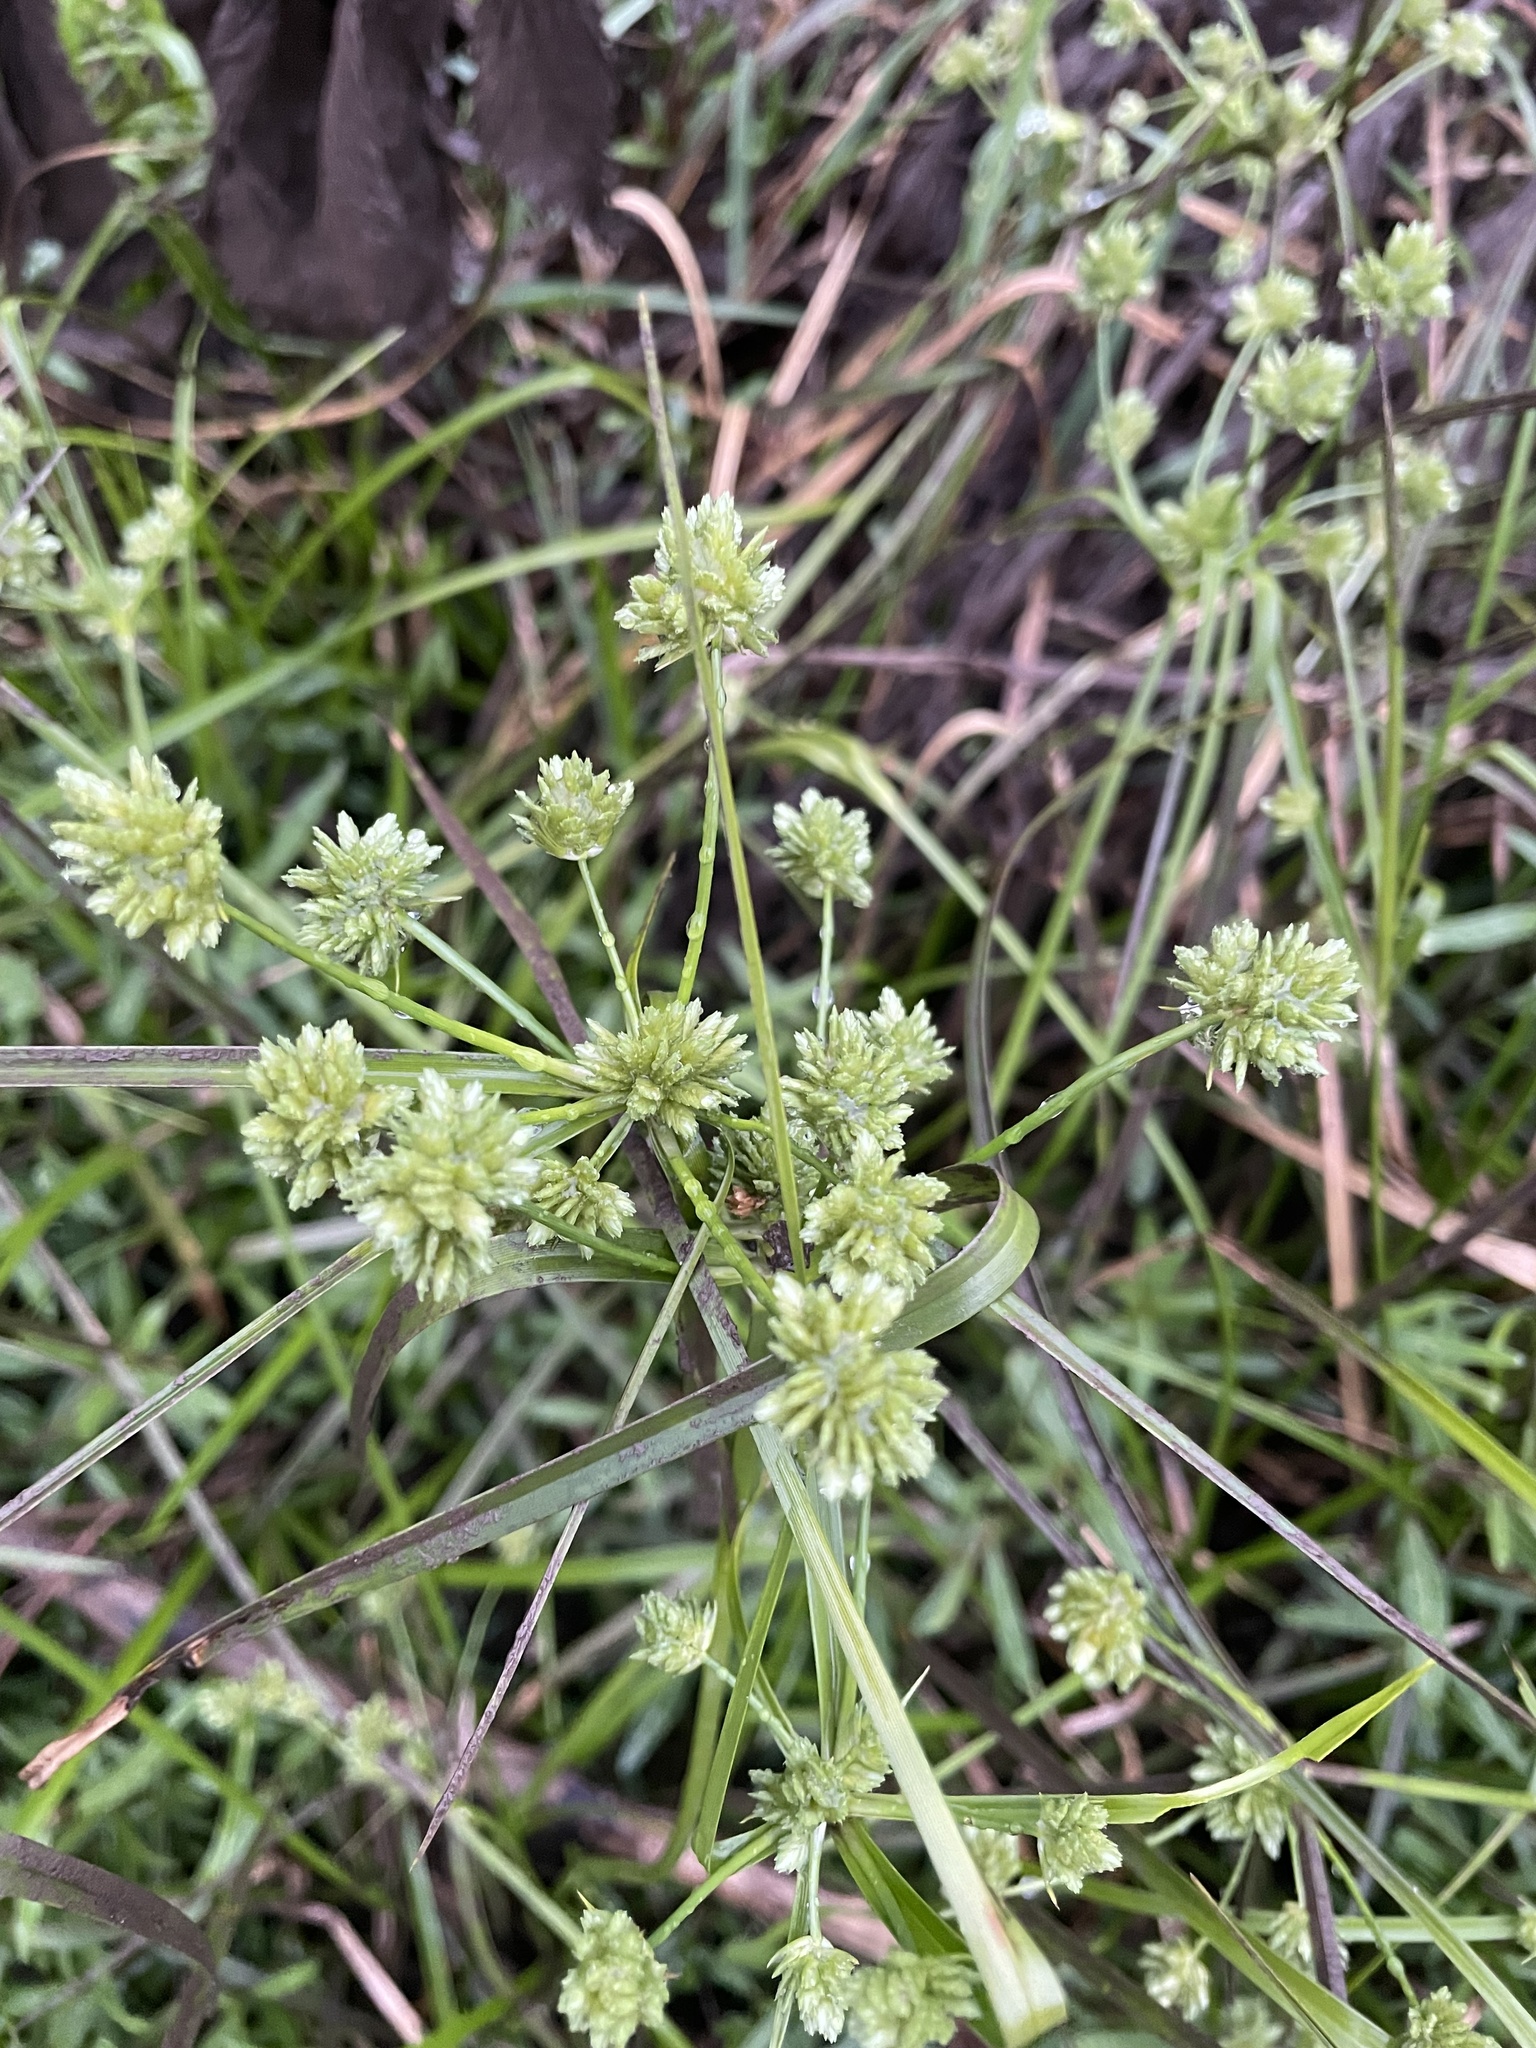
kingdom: Plantae
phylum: Tracheophyta
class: Liliopsida
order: Poales
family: Cyperaceae
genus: Cyperus
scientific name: Cyperus eragrostis
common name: Tall flatsedge
